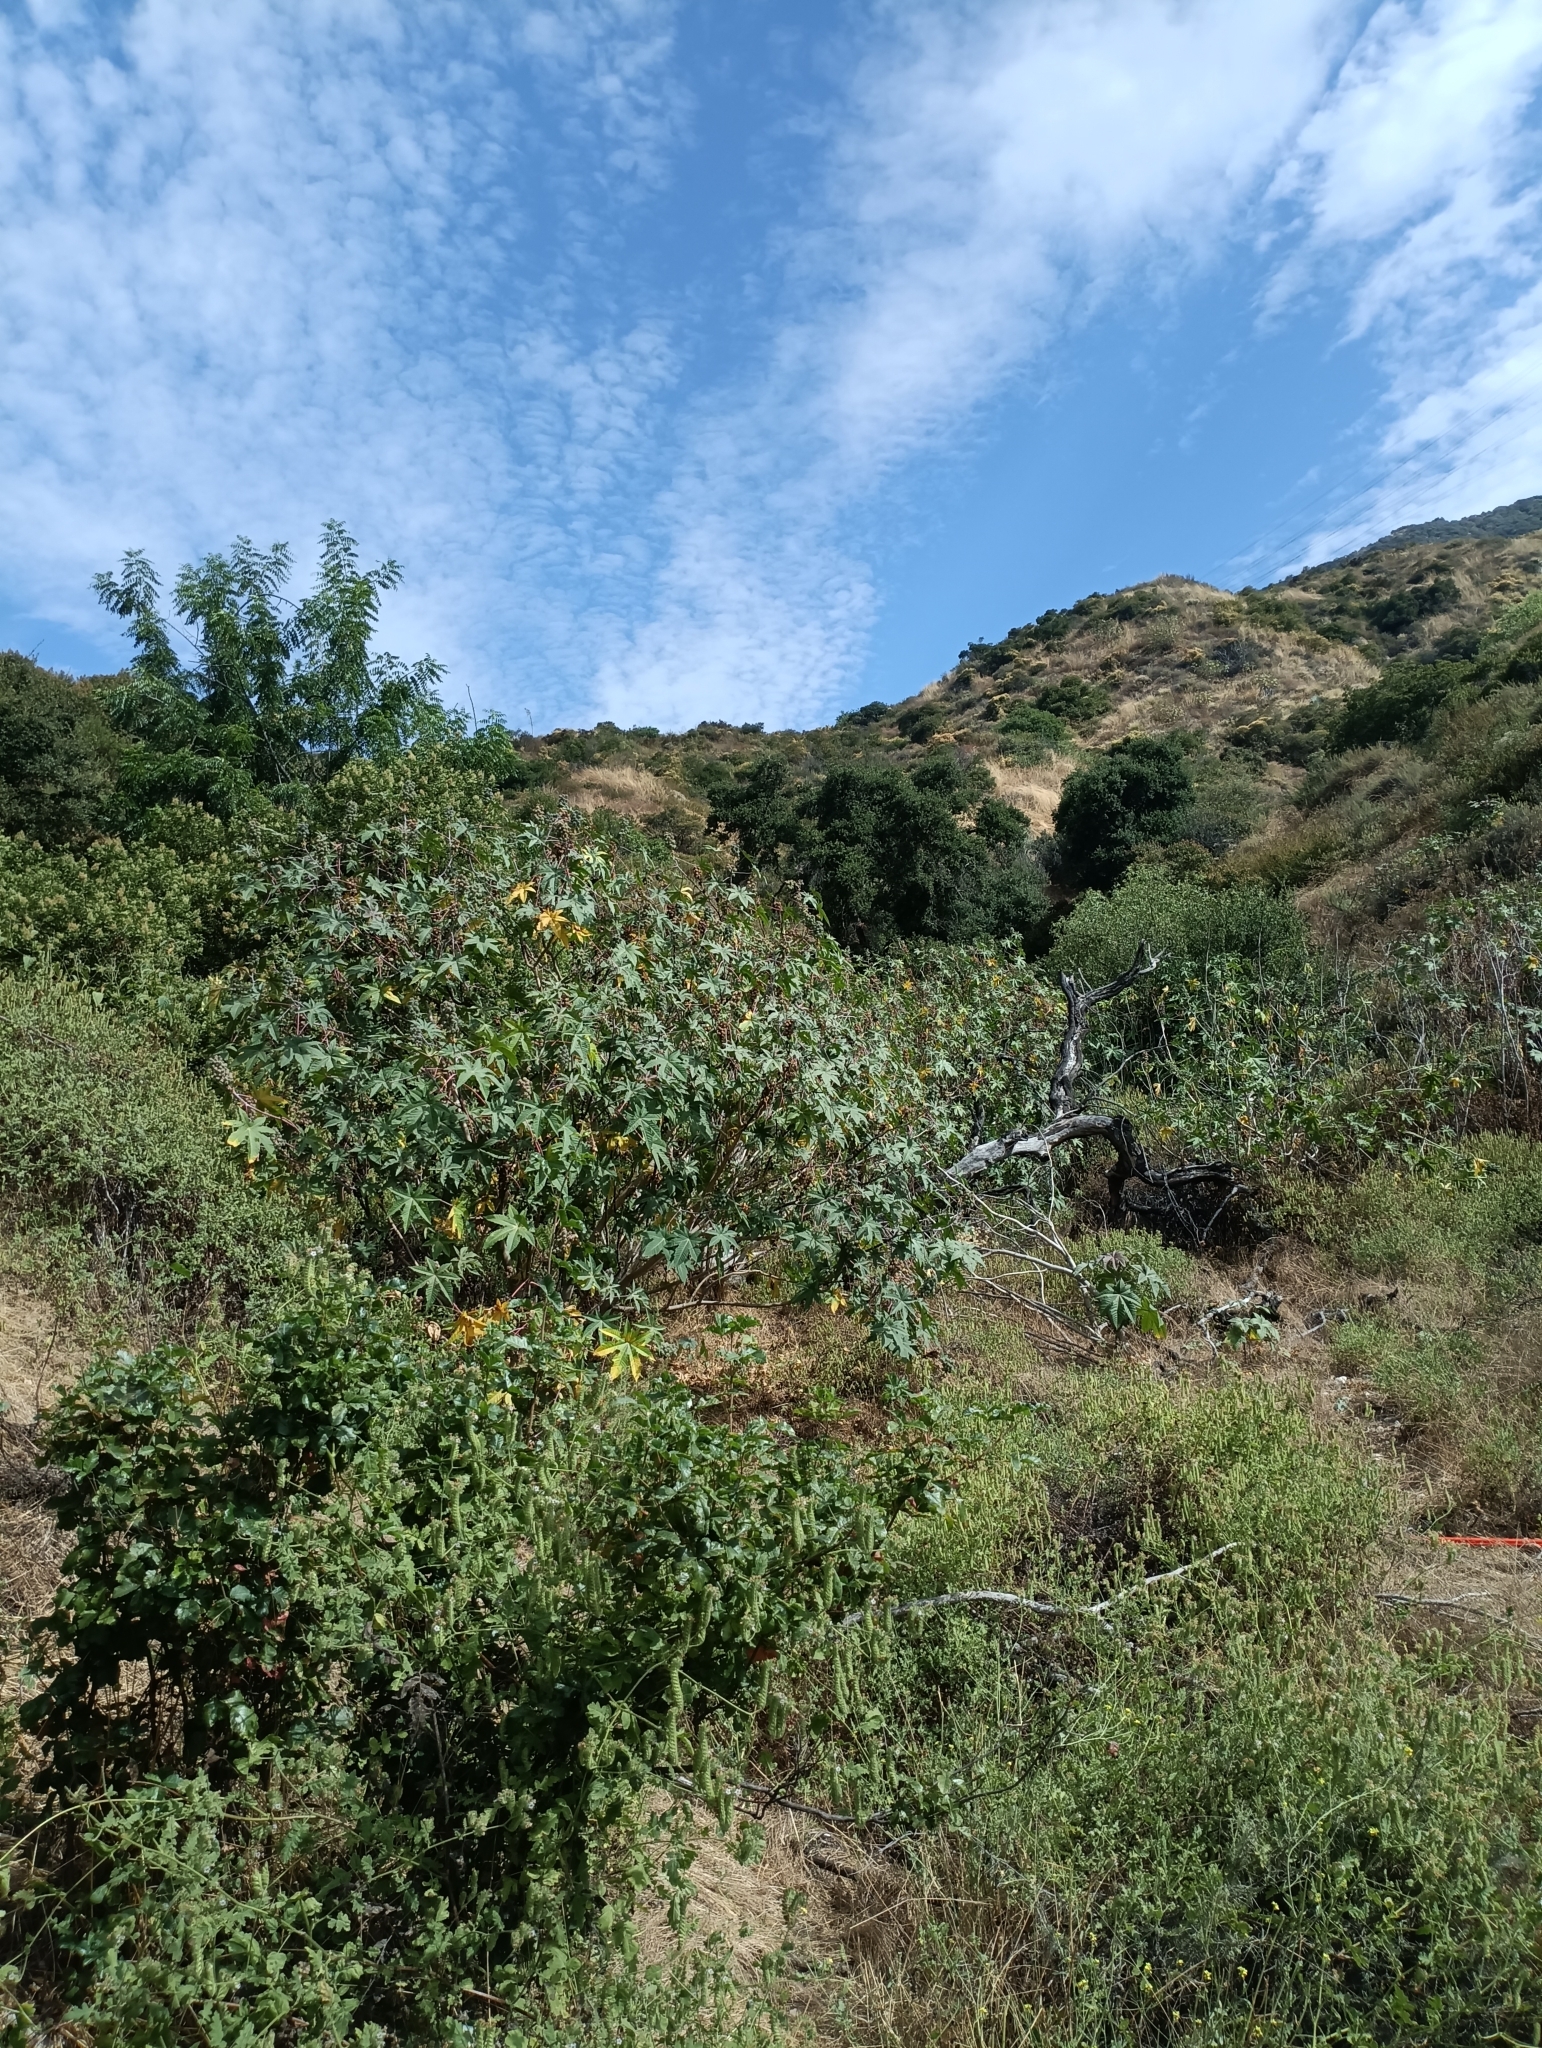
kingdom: Plantae
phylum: Tracheophyta
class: Magnoliopsida
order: Malpighiales
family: Euphorbiaceae
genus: Ricinus
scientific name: Ricinus communis
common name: Castor-oil-plant
